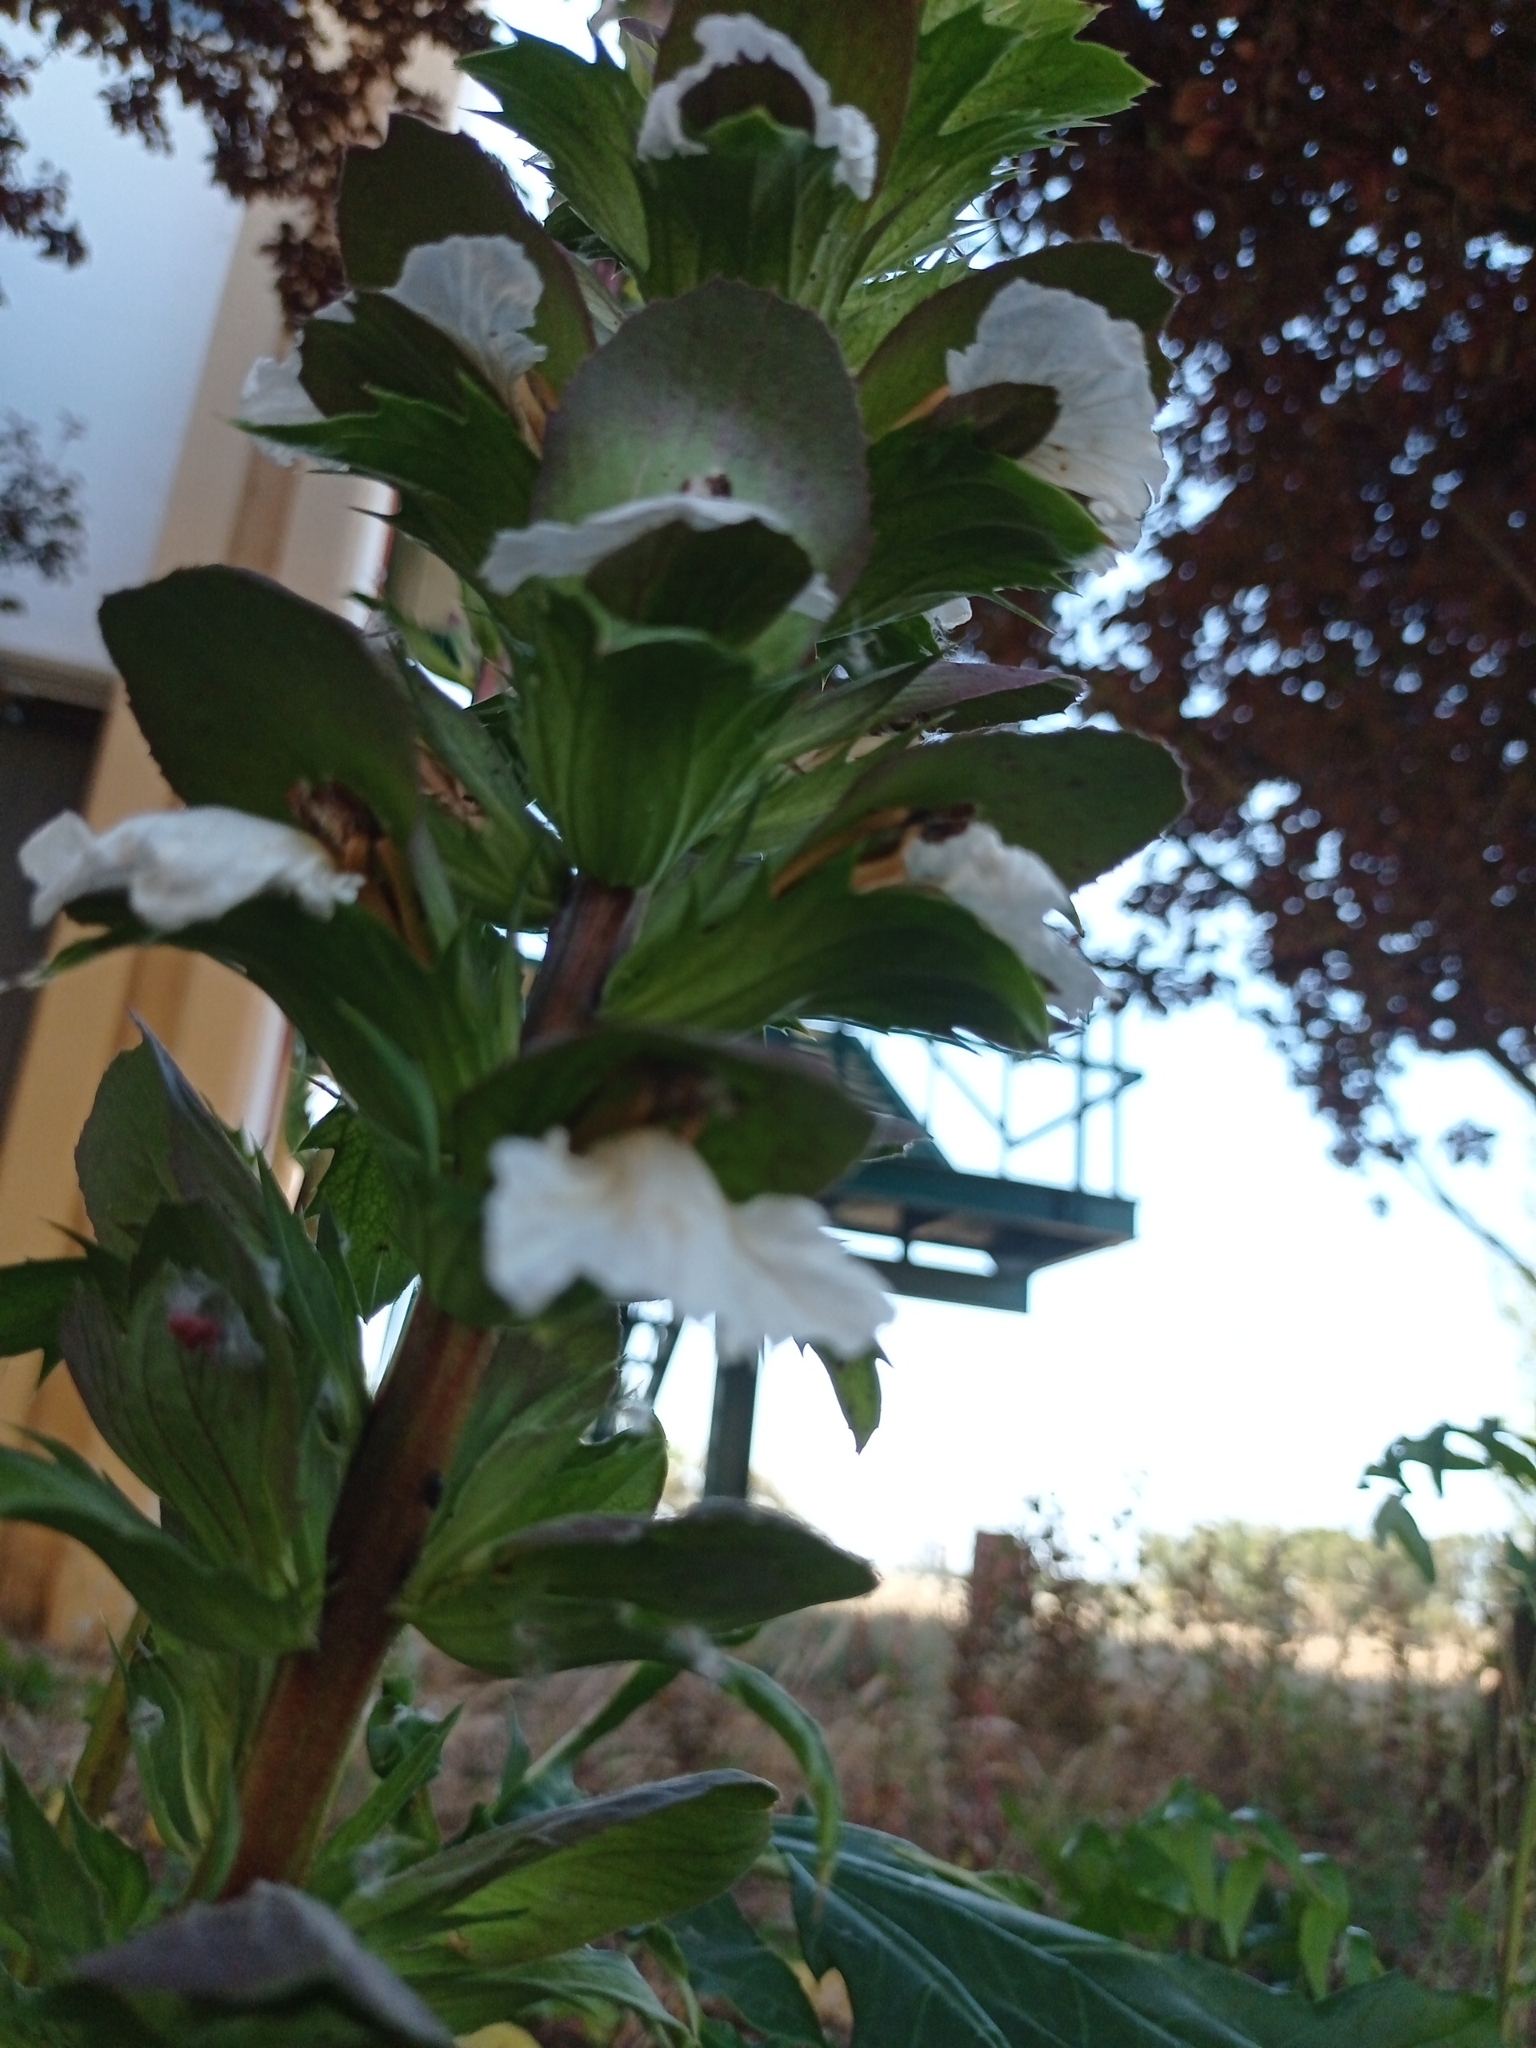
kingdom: Plantae
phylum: Tracheophyta
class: Magnoliopsida
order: Lamiales
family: Acanthaceae
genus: Acanthus
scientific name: Acanthus mollis
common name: Bear's-breech
